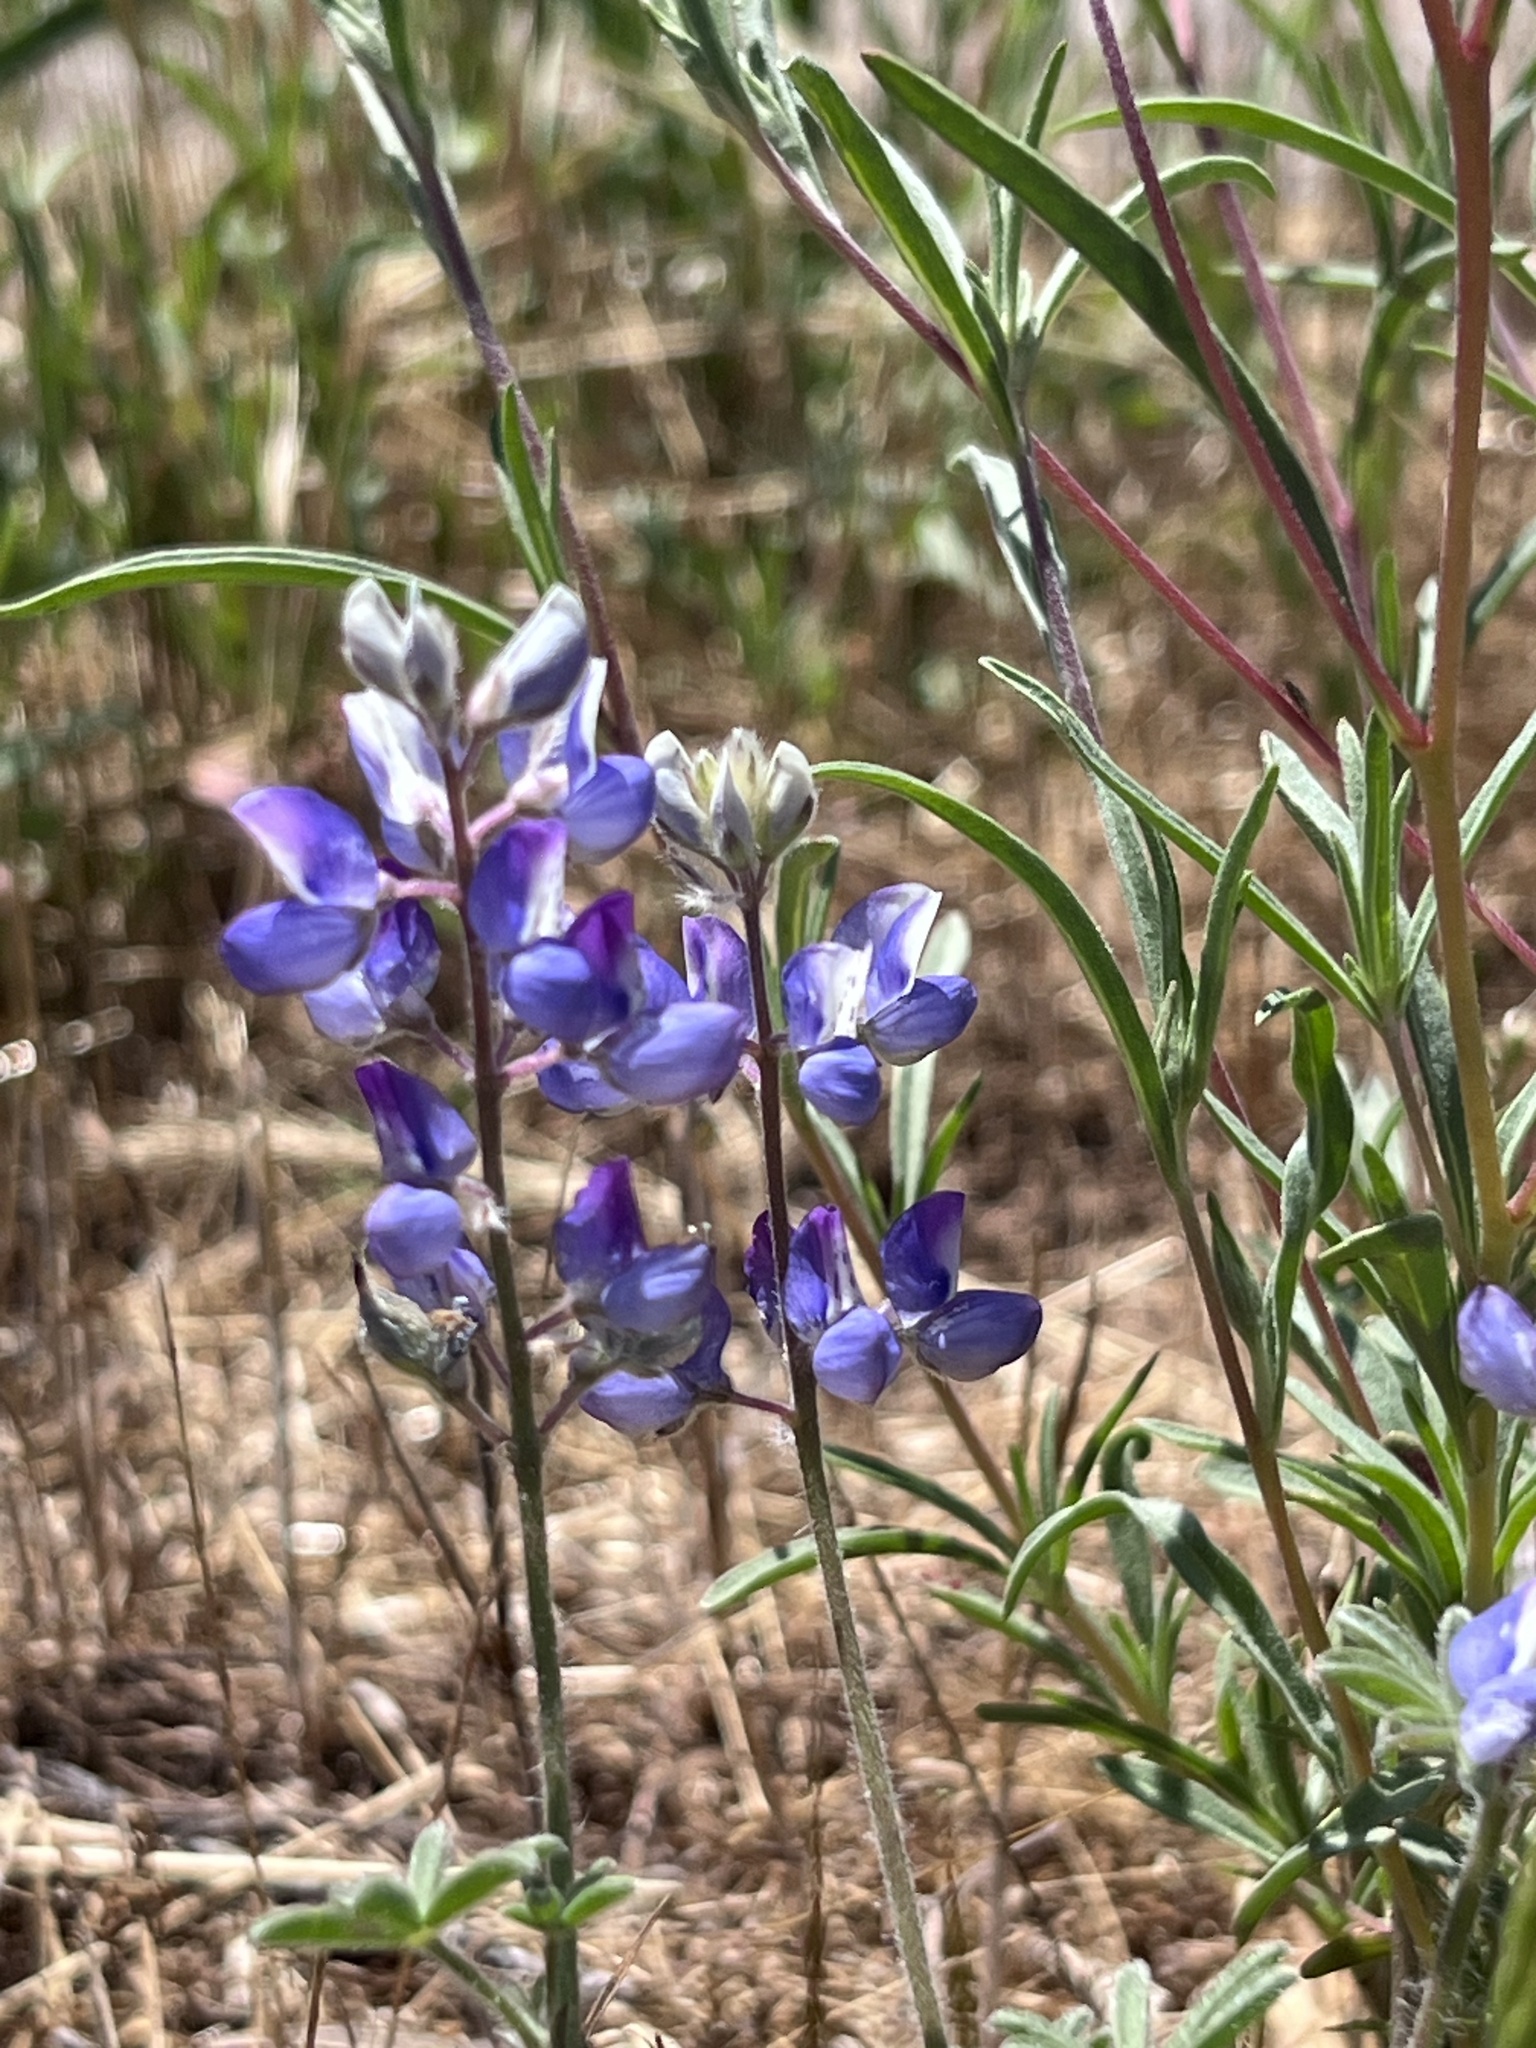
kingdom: Plantae
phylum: Tracheophyta
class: Magnoliopsida
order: Fabales
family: Fabaceae
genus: Lupinus
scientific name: Lupinus bicolor
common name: Miniature lupine
